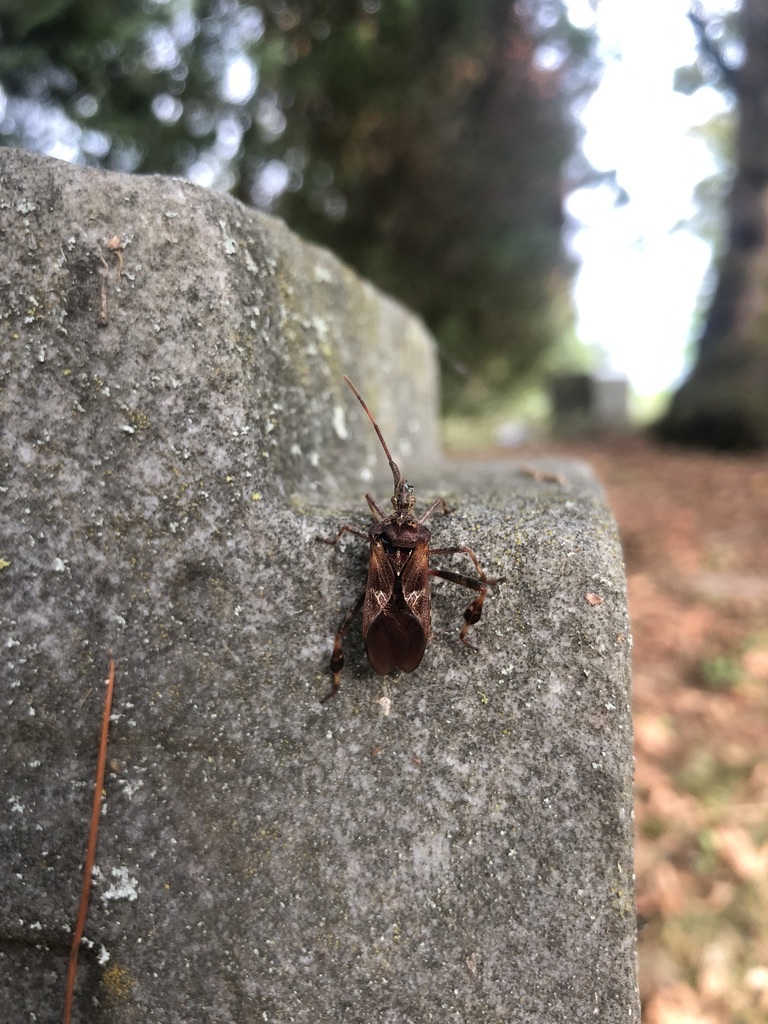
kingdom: Animalia
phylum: Arthropoda
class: Insecta
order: Hemiptera
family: Coreidae
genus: Leptoglossus
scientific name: Leptoglossus occidentalis
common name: Western conifer-seed bug
